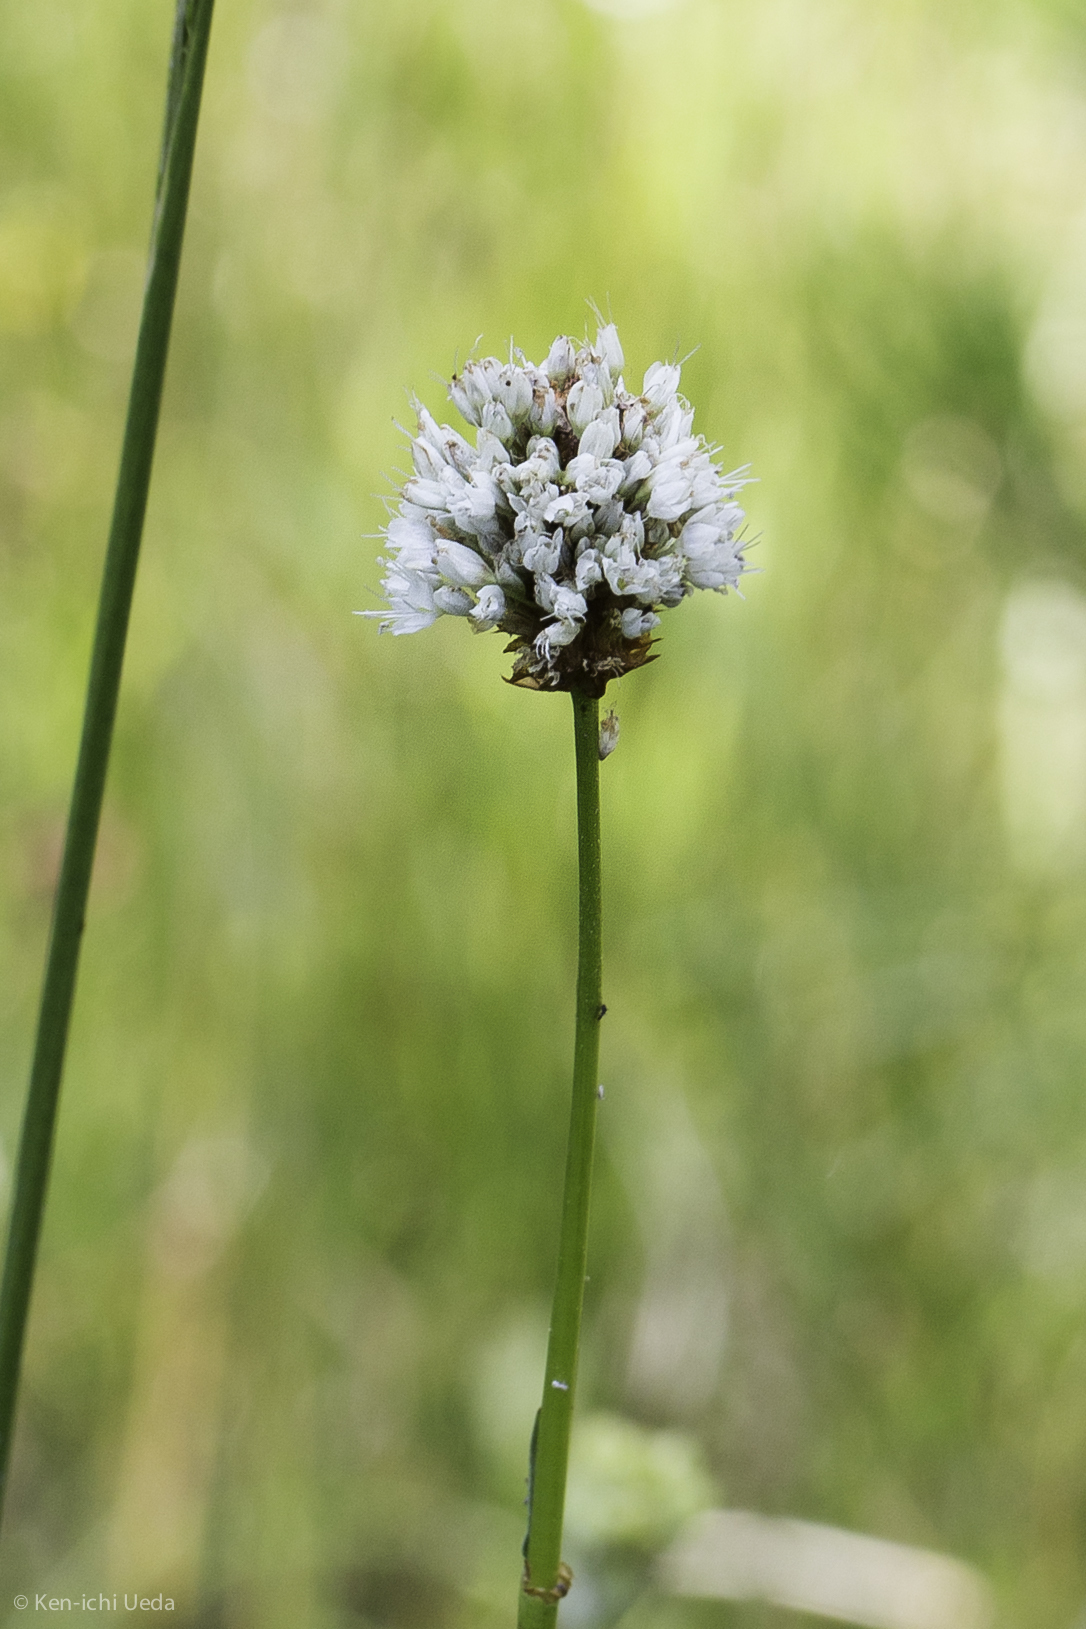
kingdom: Plantae
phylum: Tracheophyta
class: Magnoliopsida
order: Caryophyllales
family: Polygonaceae
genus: Bistorta
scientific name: Bistorta bistortoides
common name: American bistort
